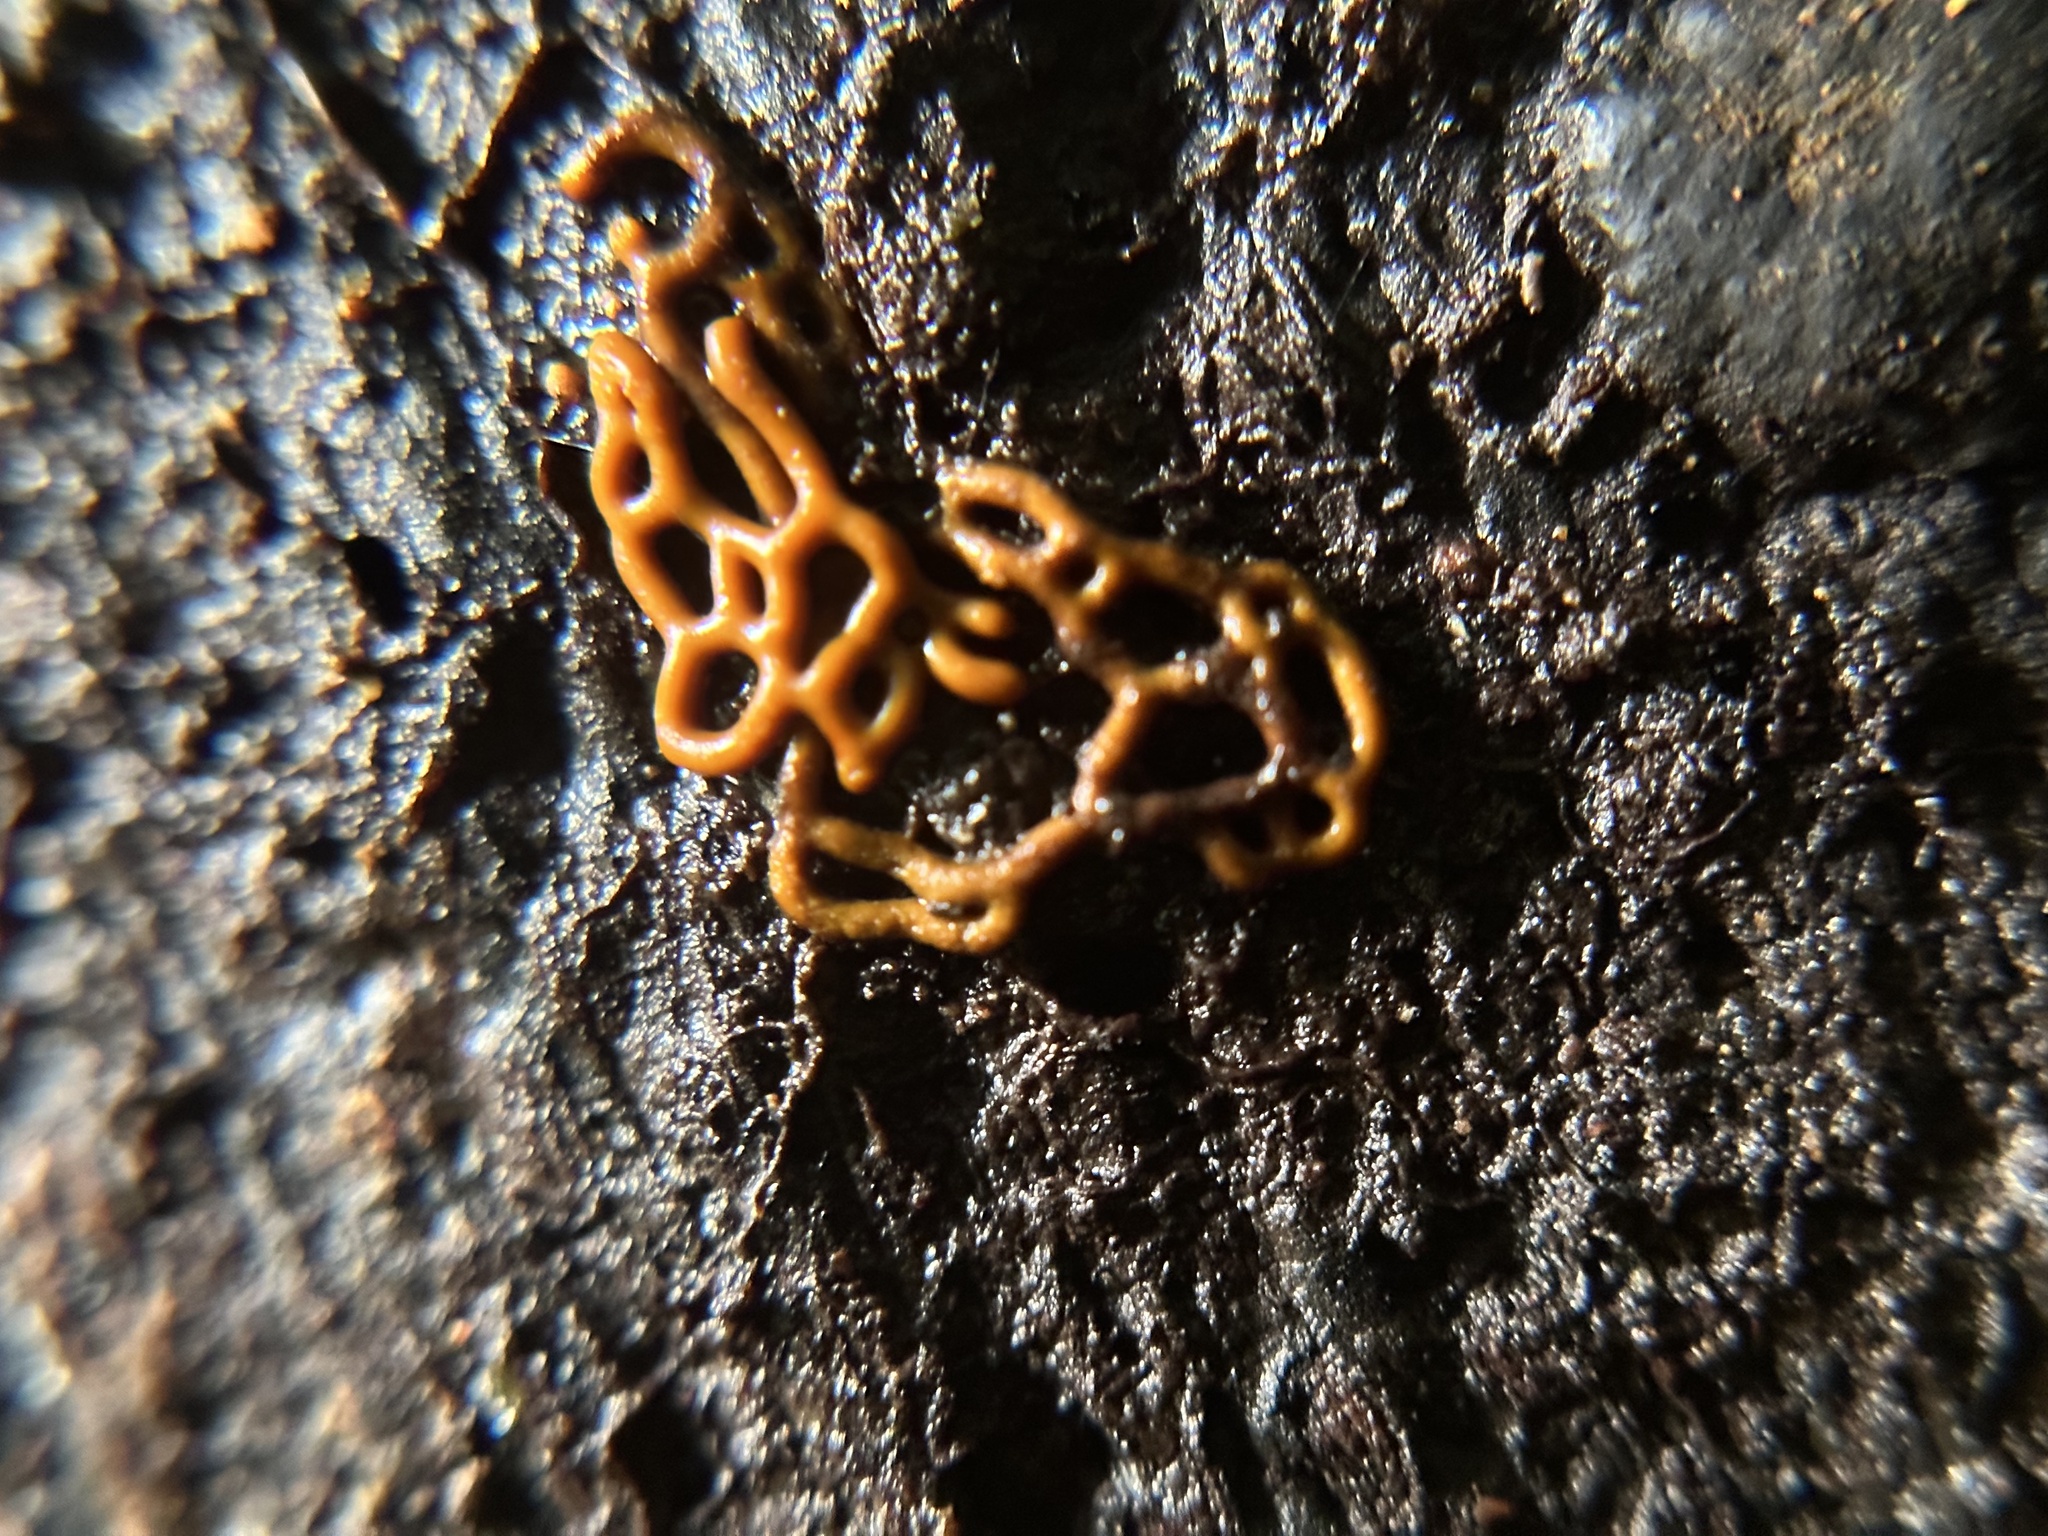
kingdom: Protozoa
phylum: Mycetozoa
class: Myxomycetes
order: Trichiales
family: Arcyriaceae
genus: Hemitrichia
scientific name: Hemitrichia serpula
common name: Pretzel slime mold
